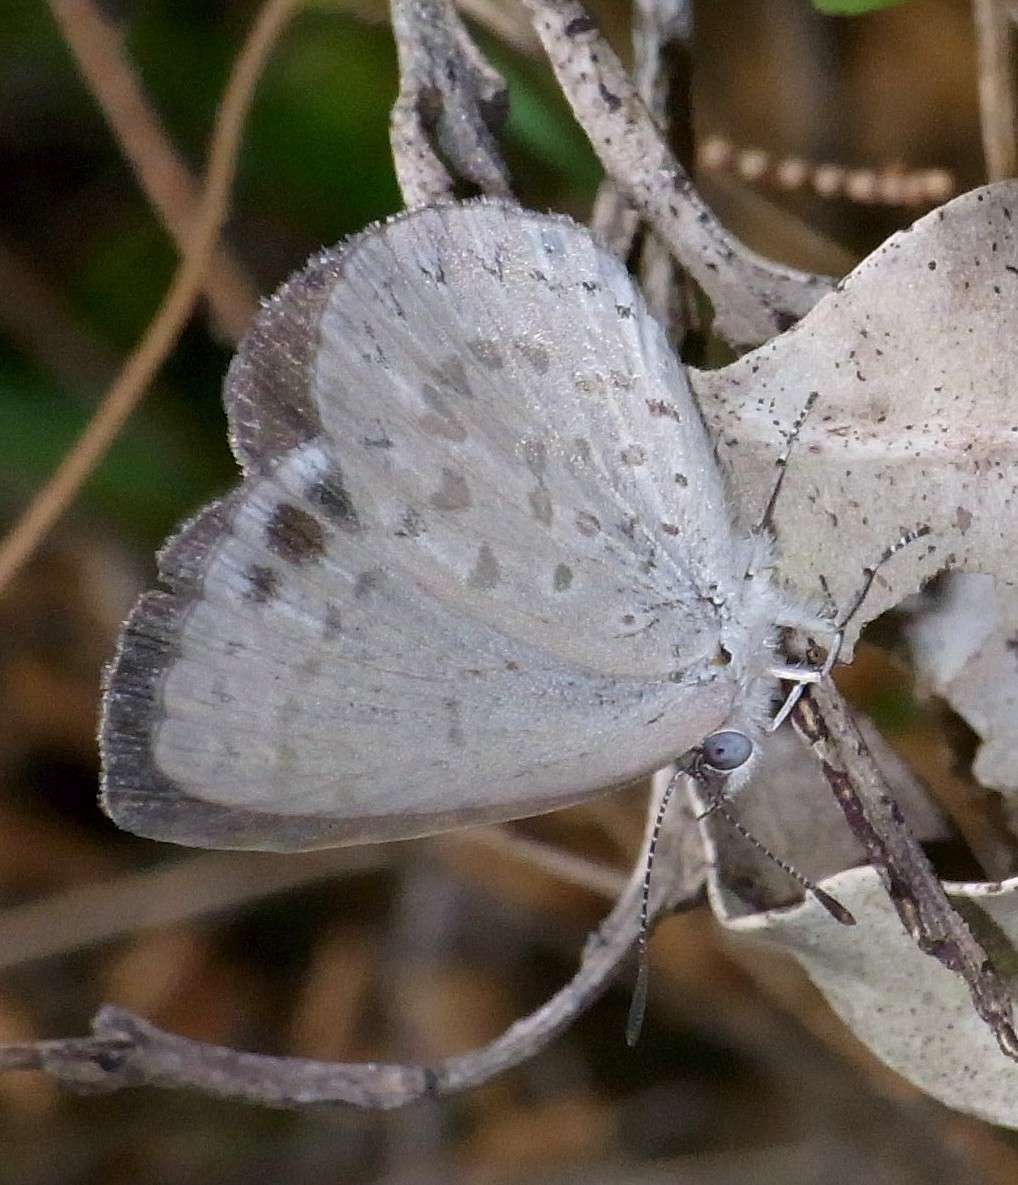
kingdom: Animalia
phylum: Arthropoda
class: Insecta
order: Lepidoptera
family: Lycaenidae
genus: Candalides
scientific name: Candalides
